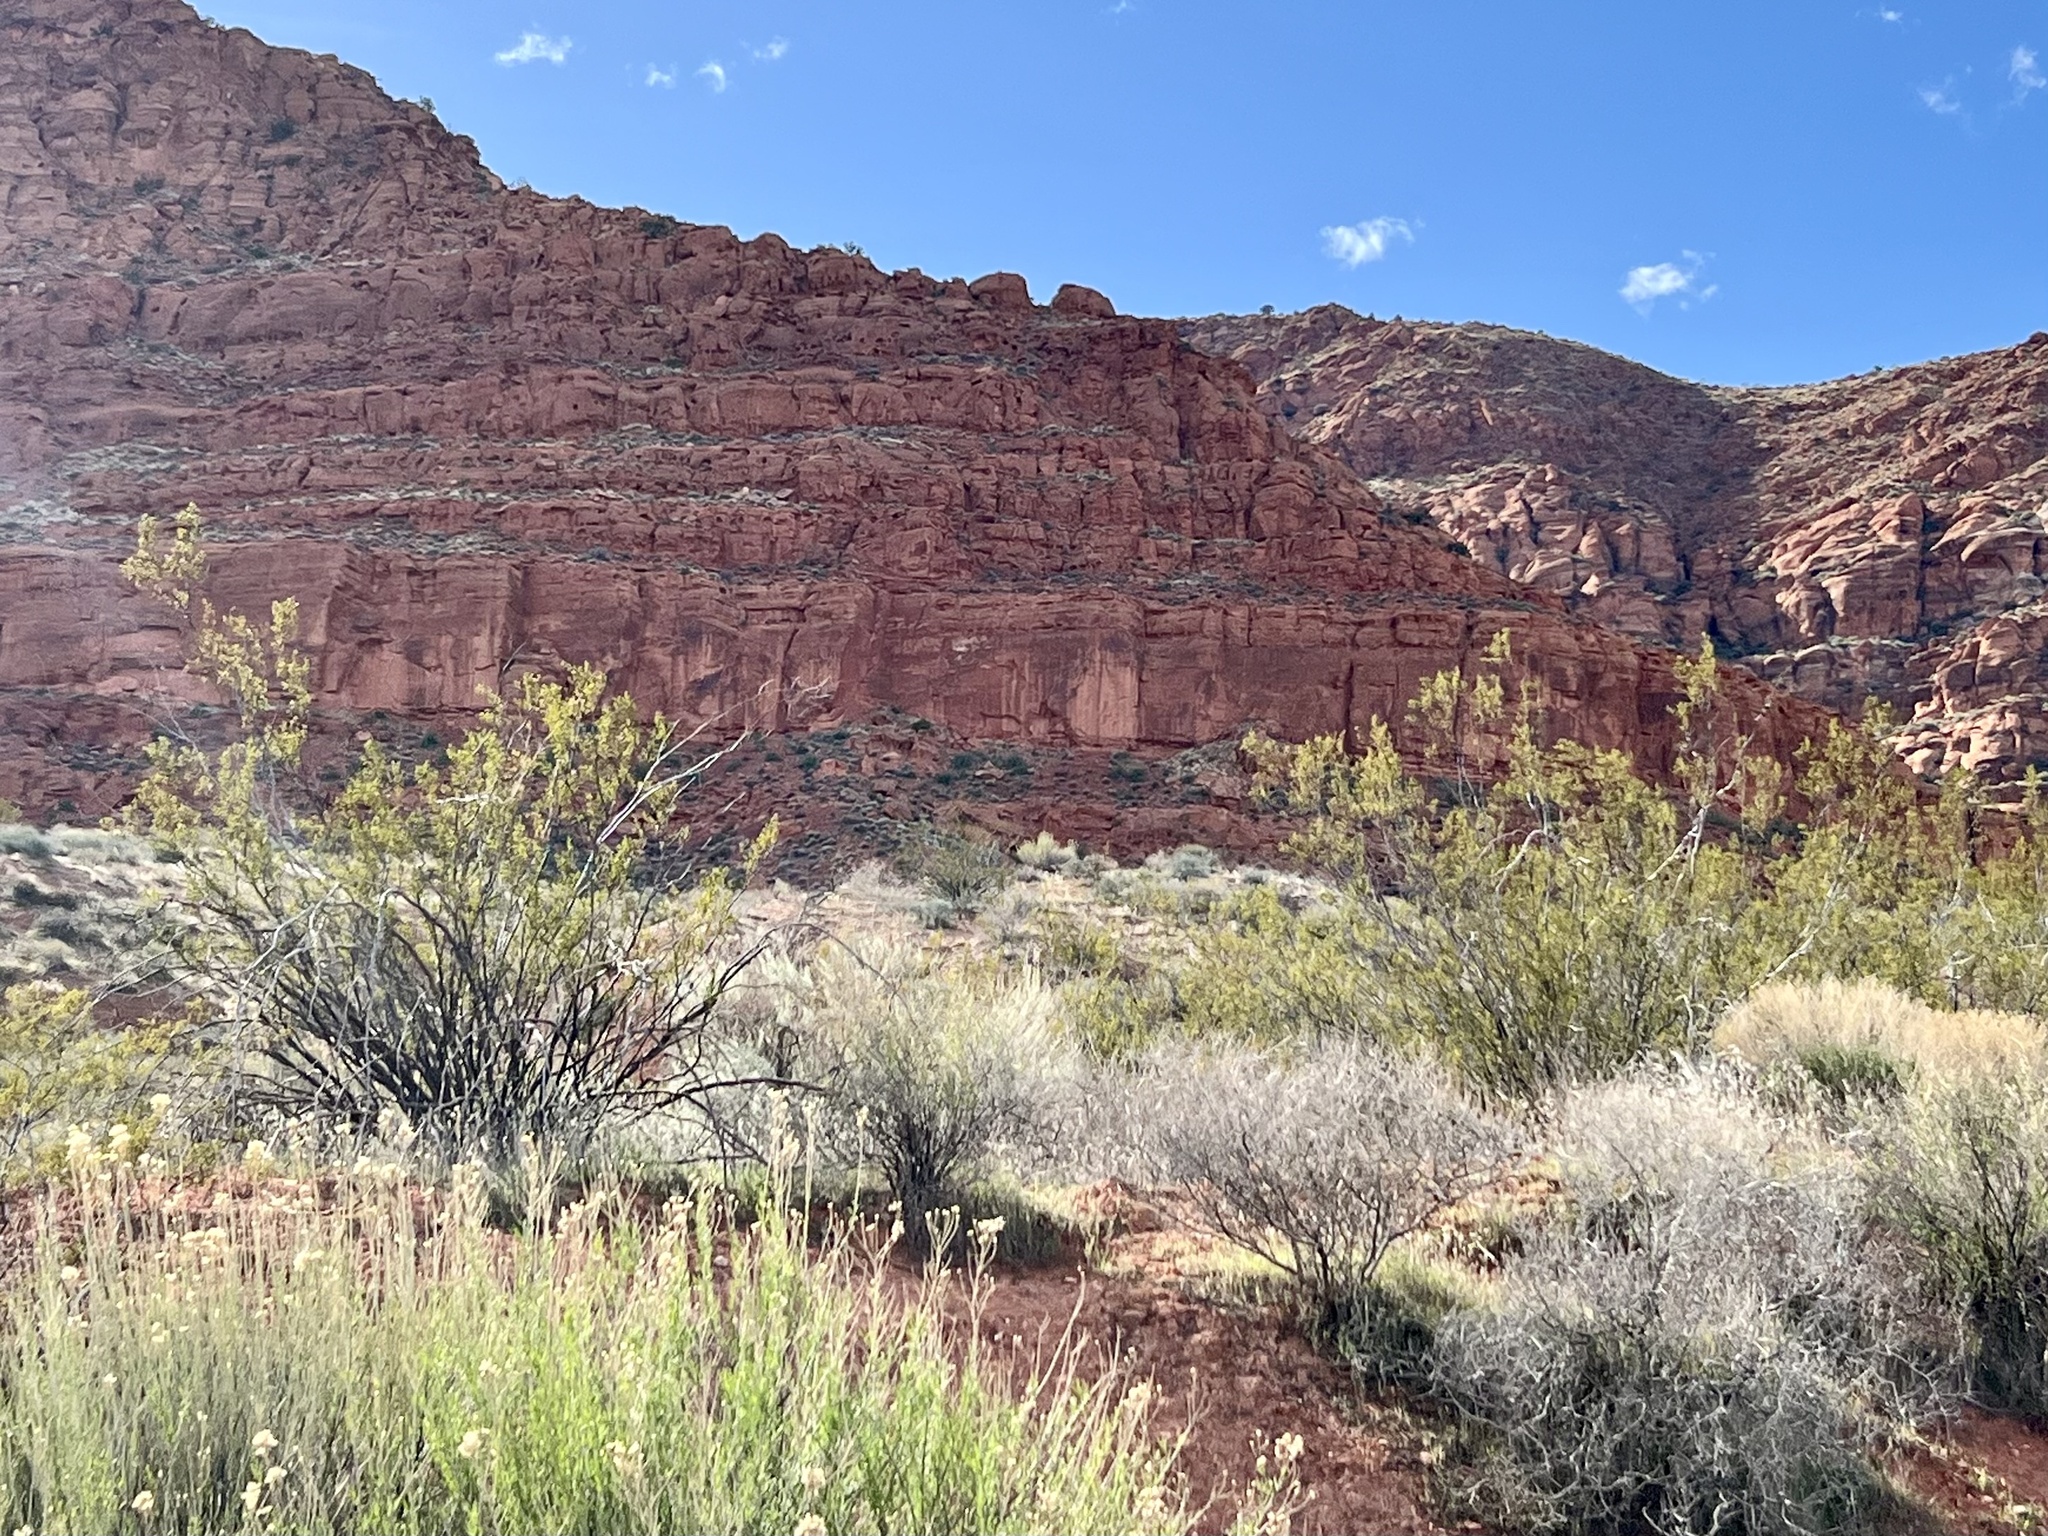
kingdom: Plantae
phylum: Tracheophyta
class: Magnoliopsida
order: Zygophyllales
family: Zygophyllaceae
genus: Larrea
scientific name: Larrea tridentata
